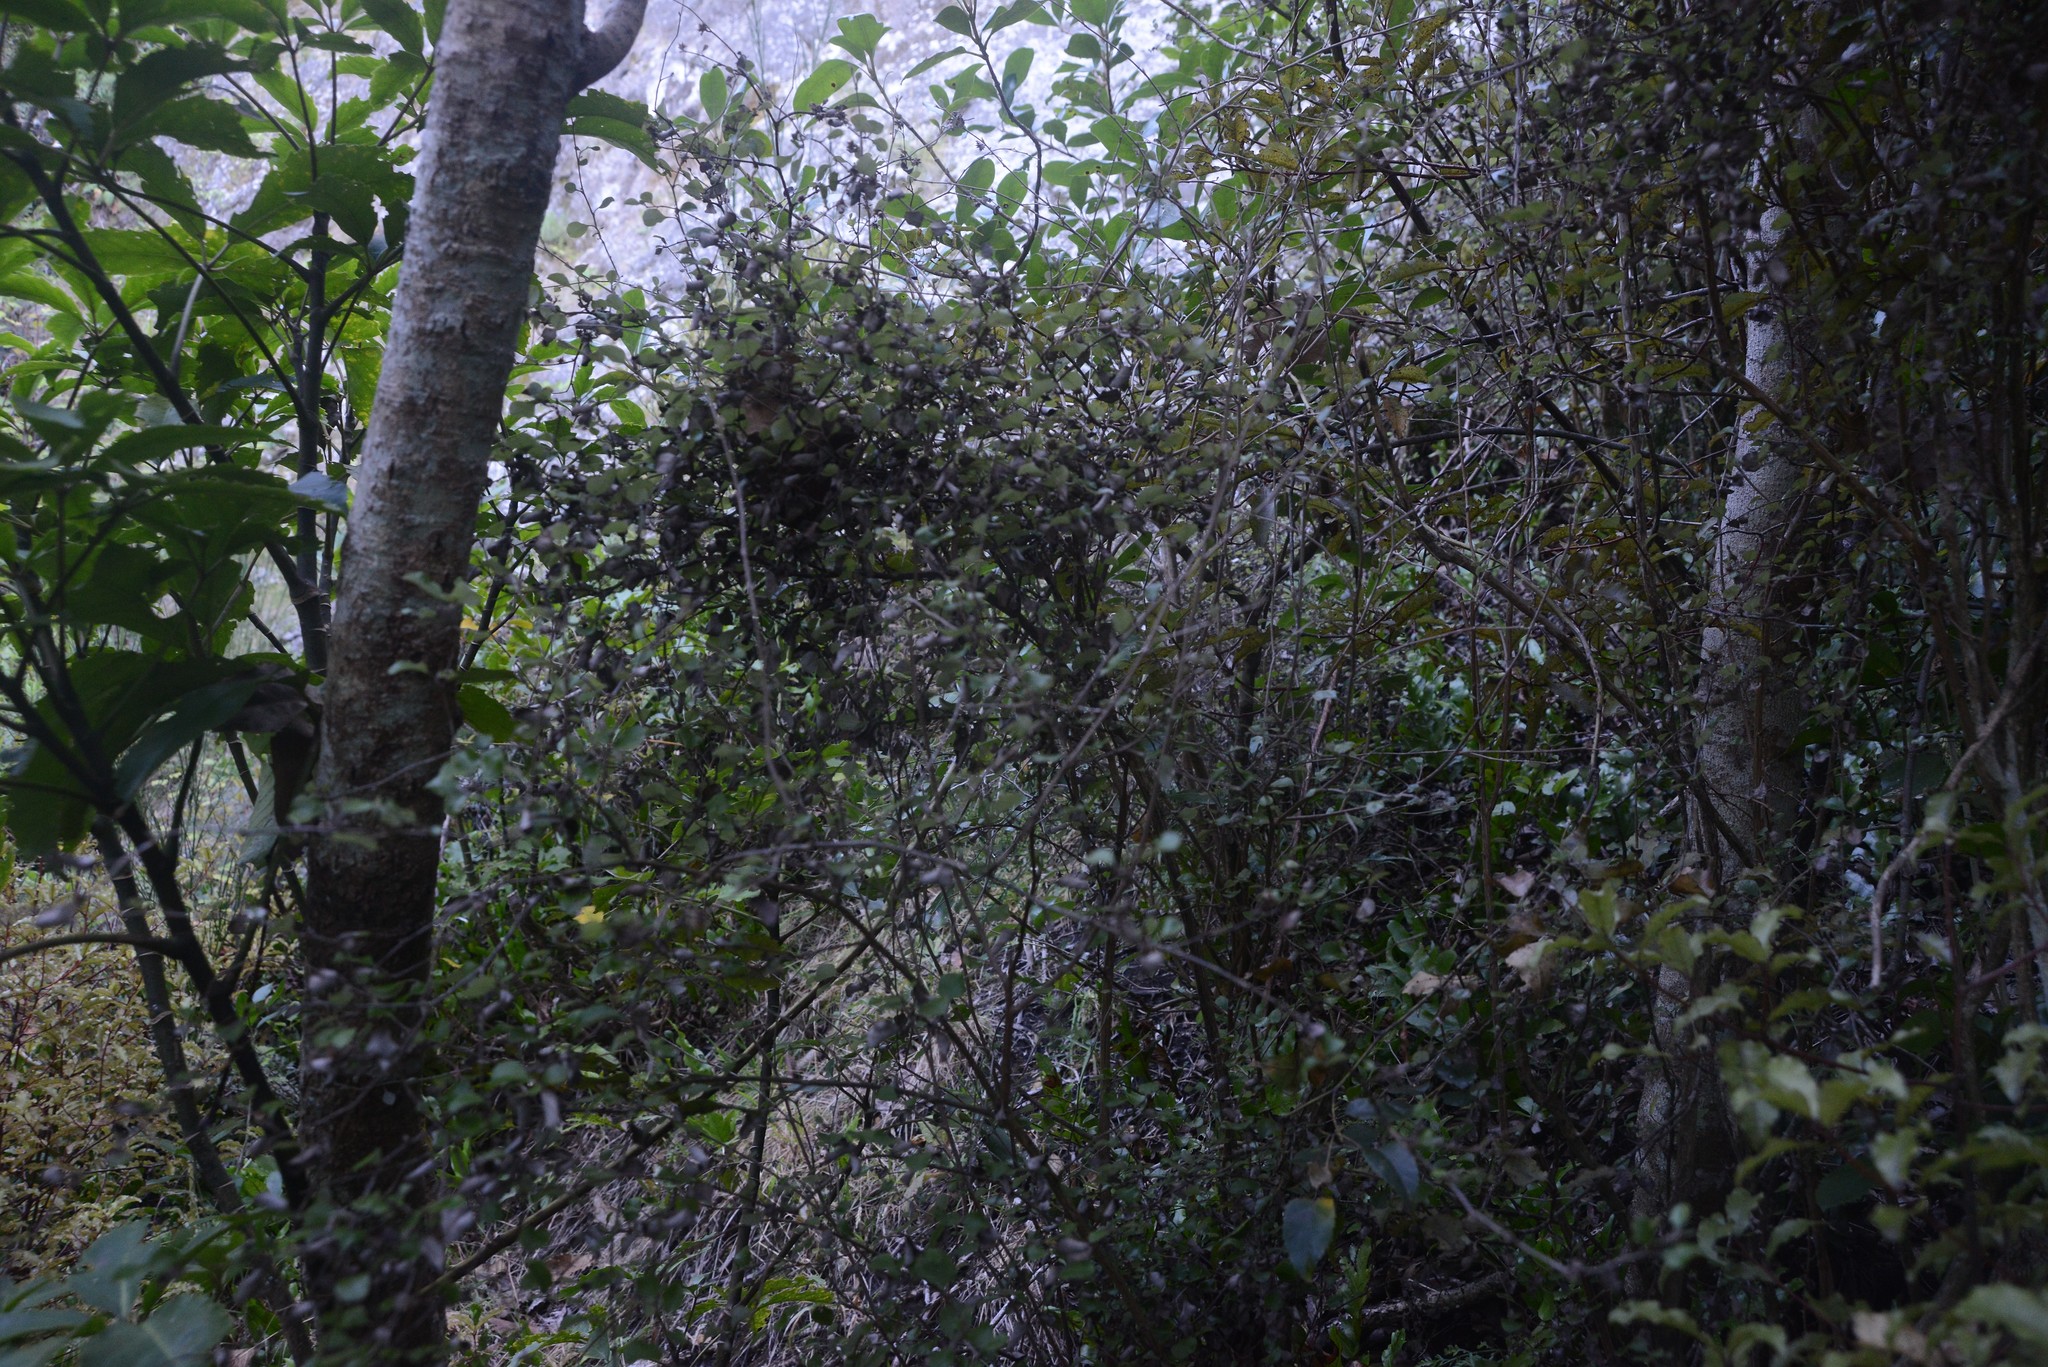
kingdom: Plantae
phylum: Tracheophyta
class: Magnoliopsida
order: Asterales
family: Asteraceae
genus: Ozothamnus
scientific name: Ozothamnus glomeratus
